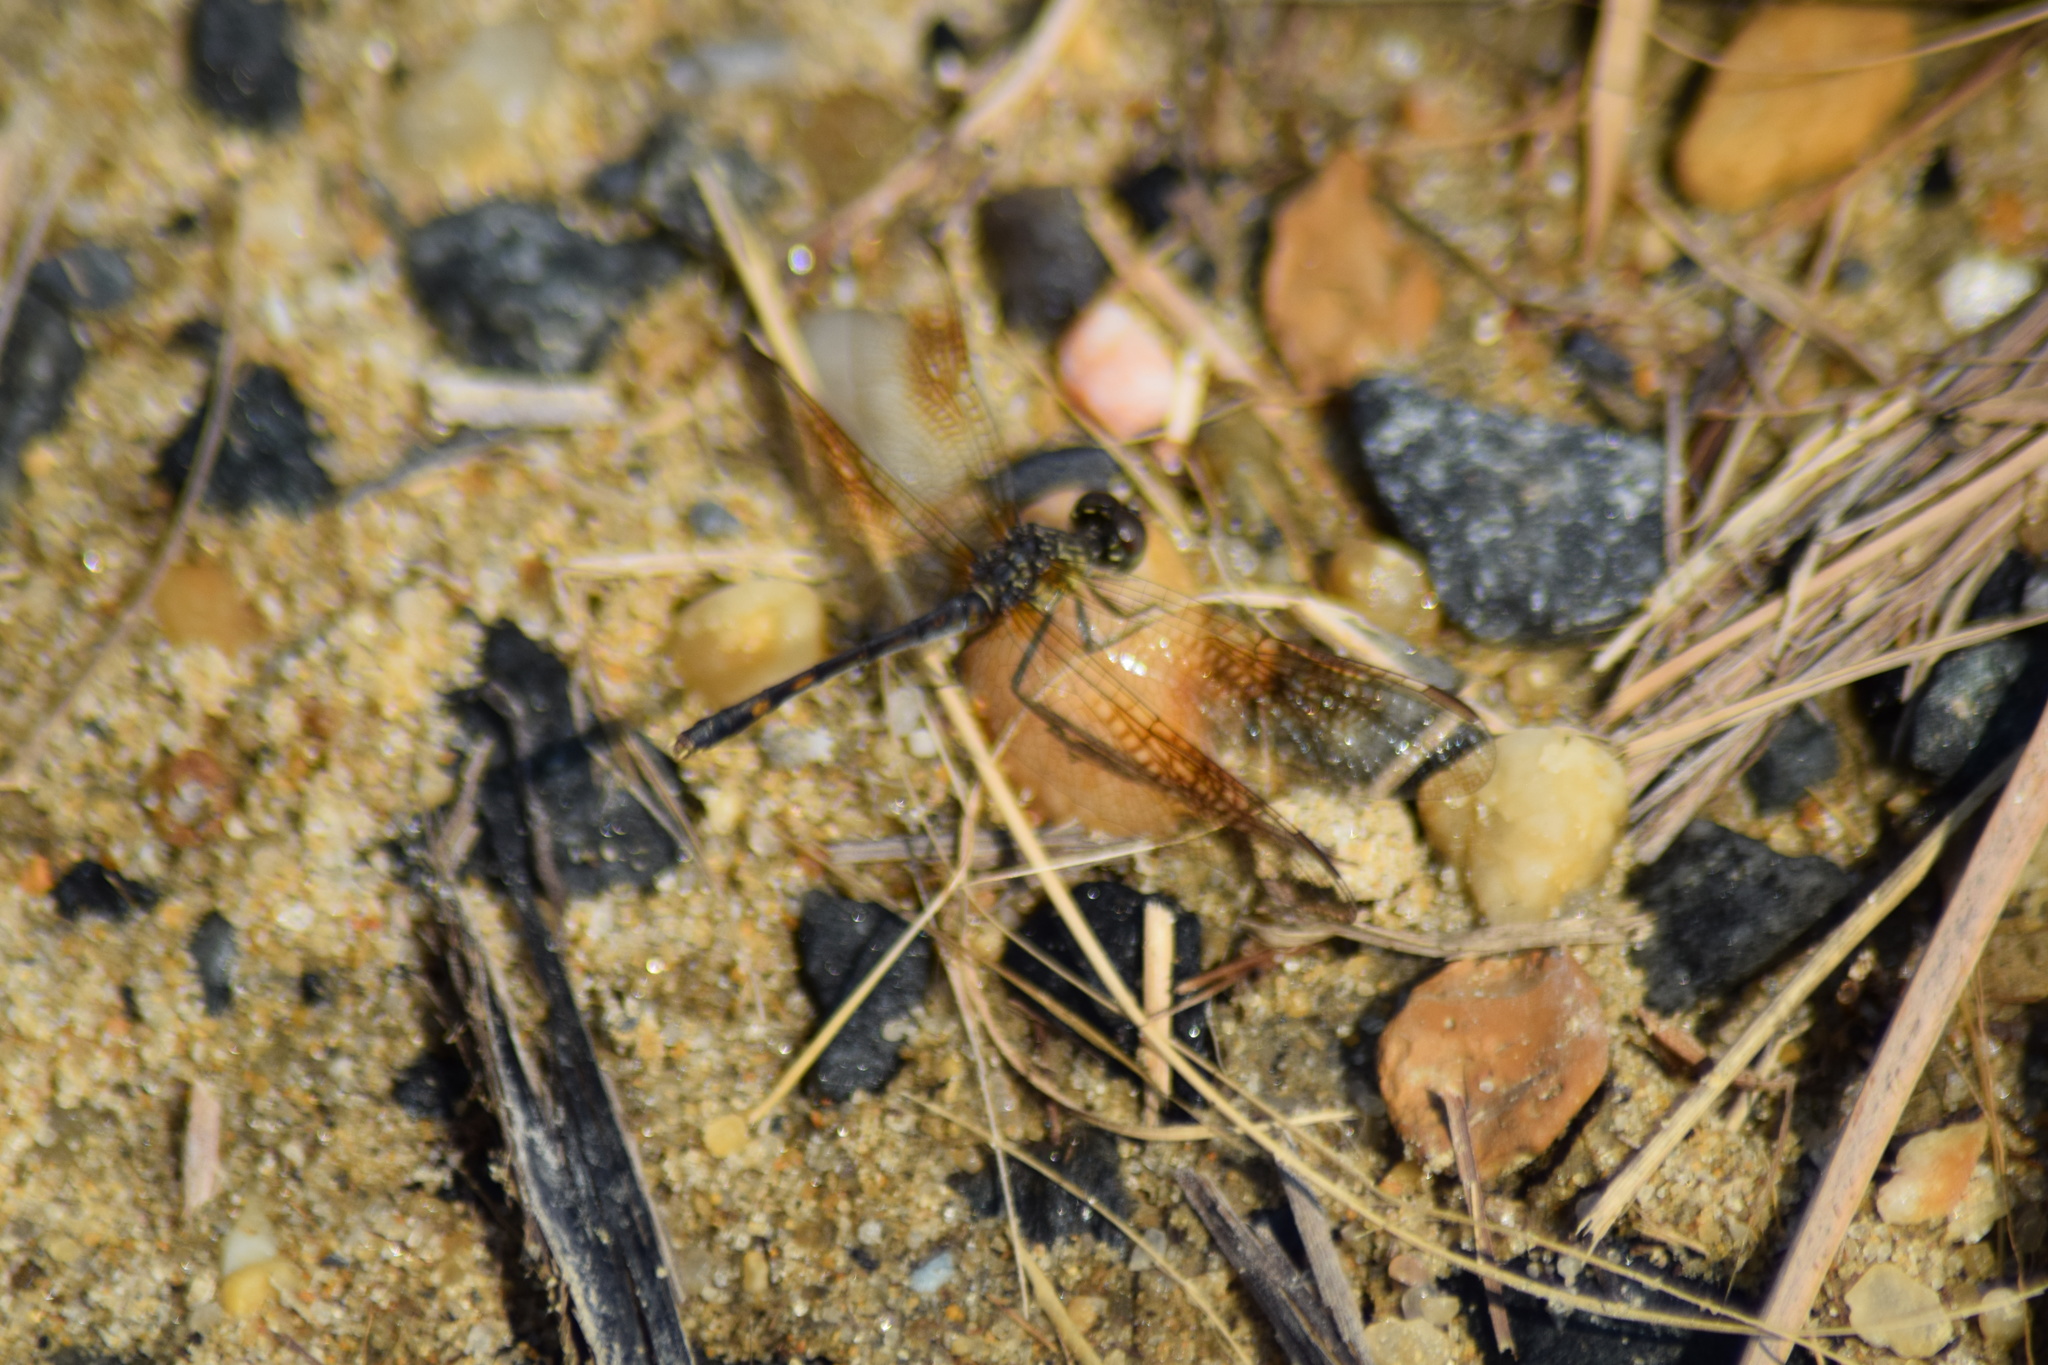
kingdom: Animalia
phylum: Arthropoda
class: Insecta
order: Odonata
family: Libellulidae
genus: Erythrodiplax
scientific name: Erythrodiplax berenice
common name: Seaside dragonlet
